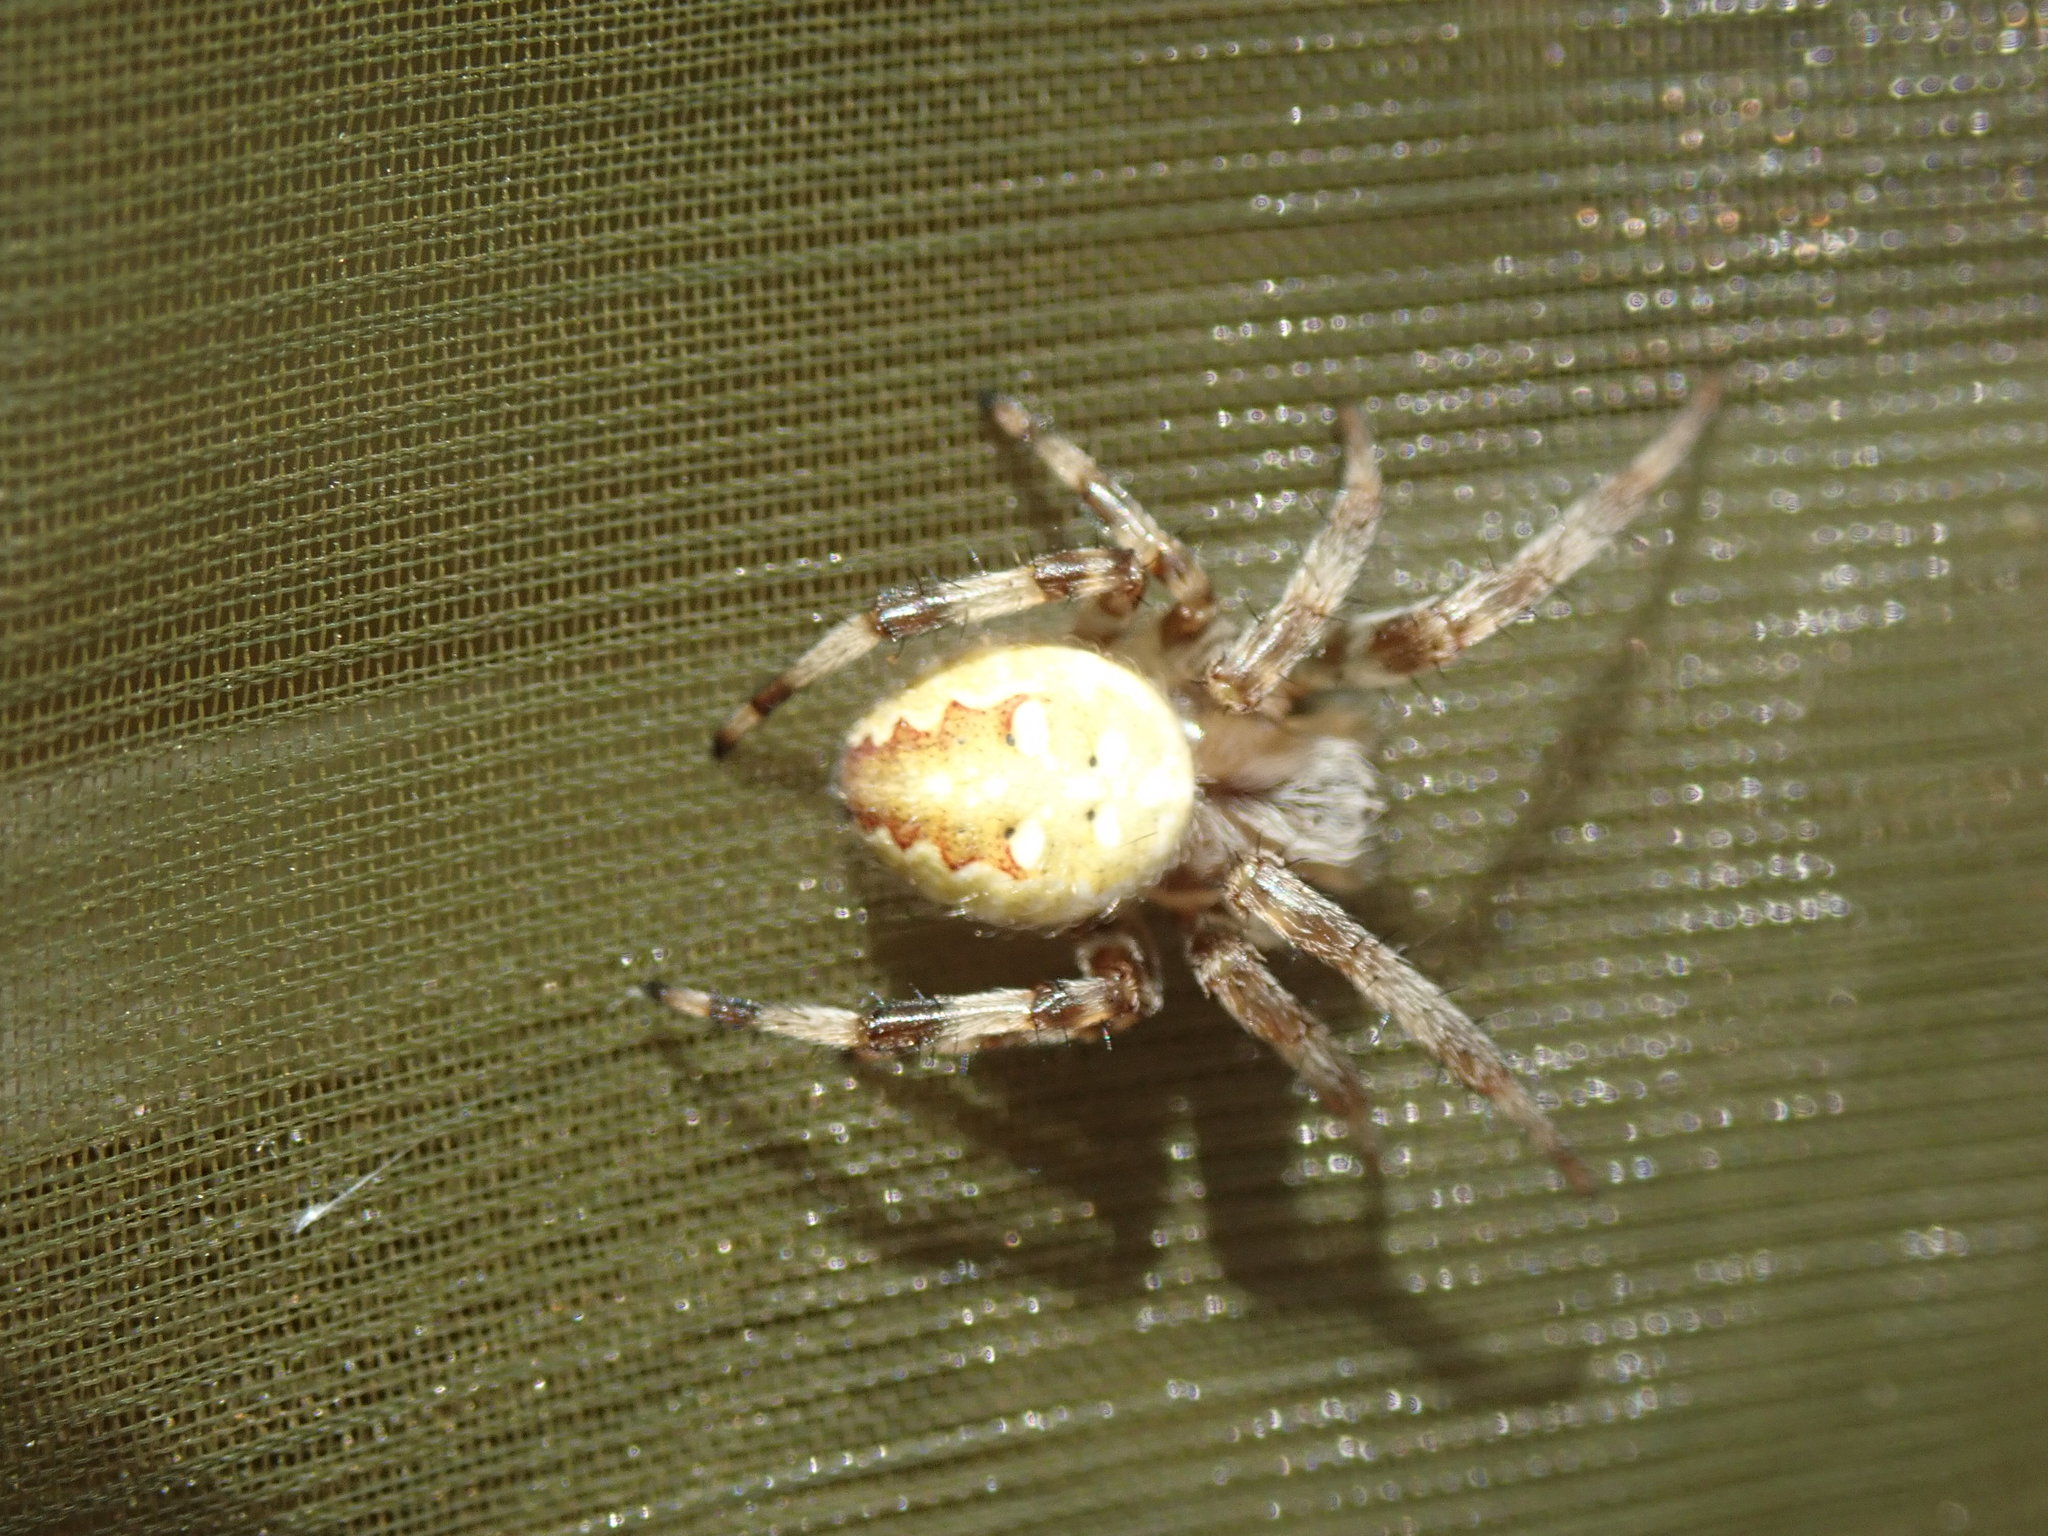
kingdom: Animalia
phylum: Arthropoda
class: Arachnida
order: Araneae
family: Araneidae
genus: Araneus
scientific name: Araneus quadratus
